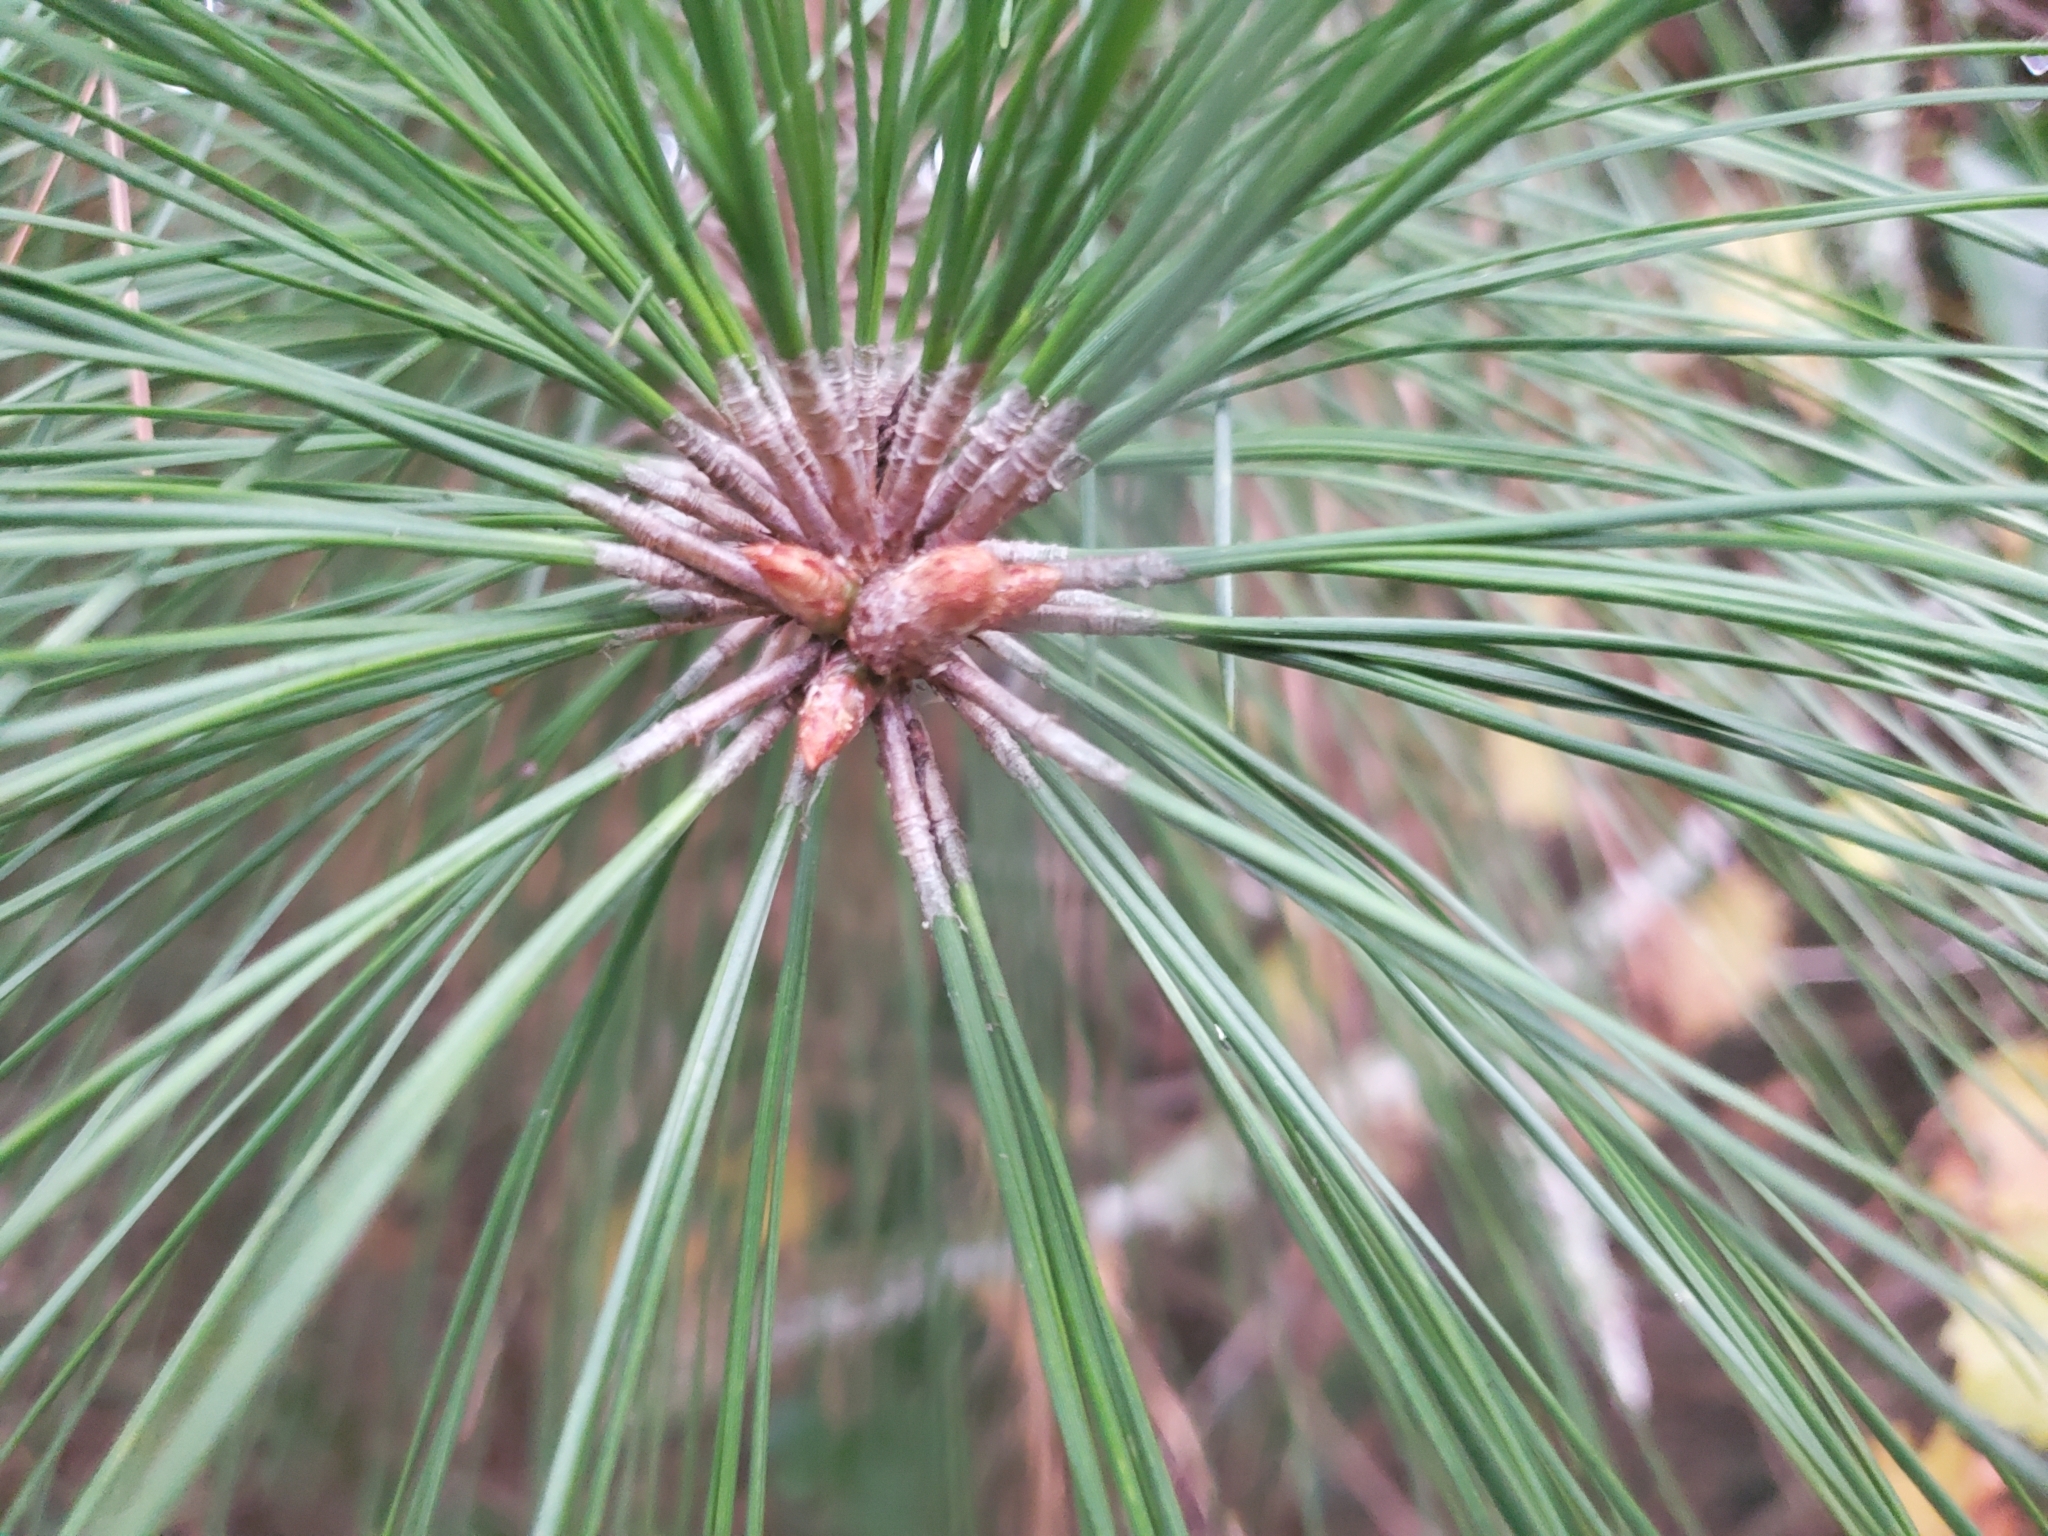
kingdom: Plantae
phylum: Tracheophyta
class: Pinopsida
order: Pinales
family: Pinaceae
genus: Pinus
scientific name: Pinus elliottii
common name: Slash pine
